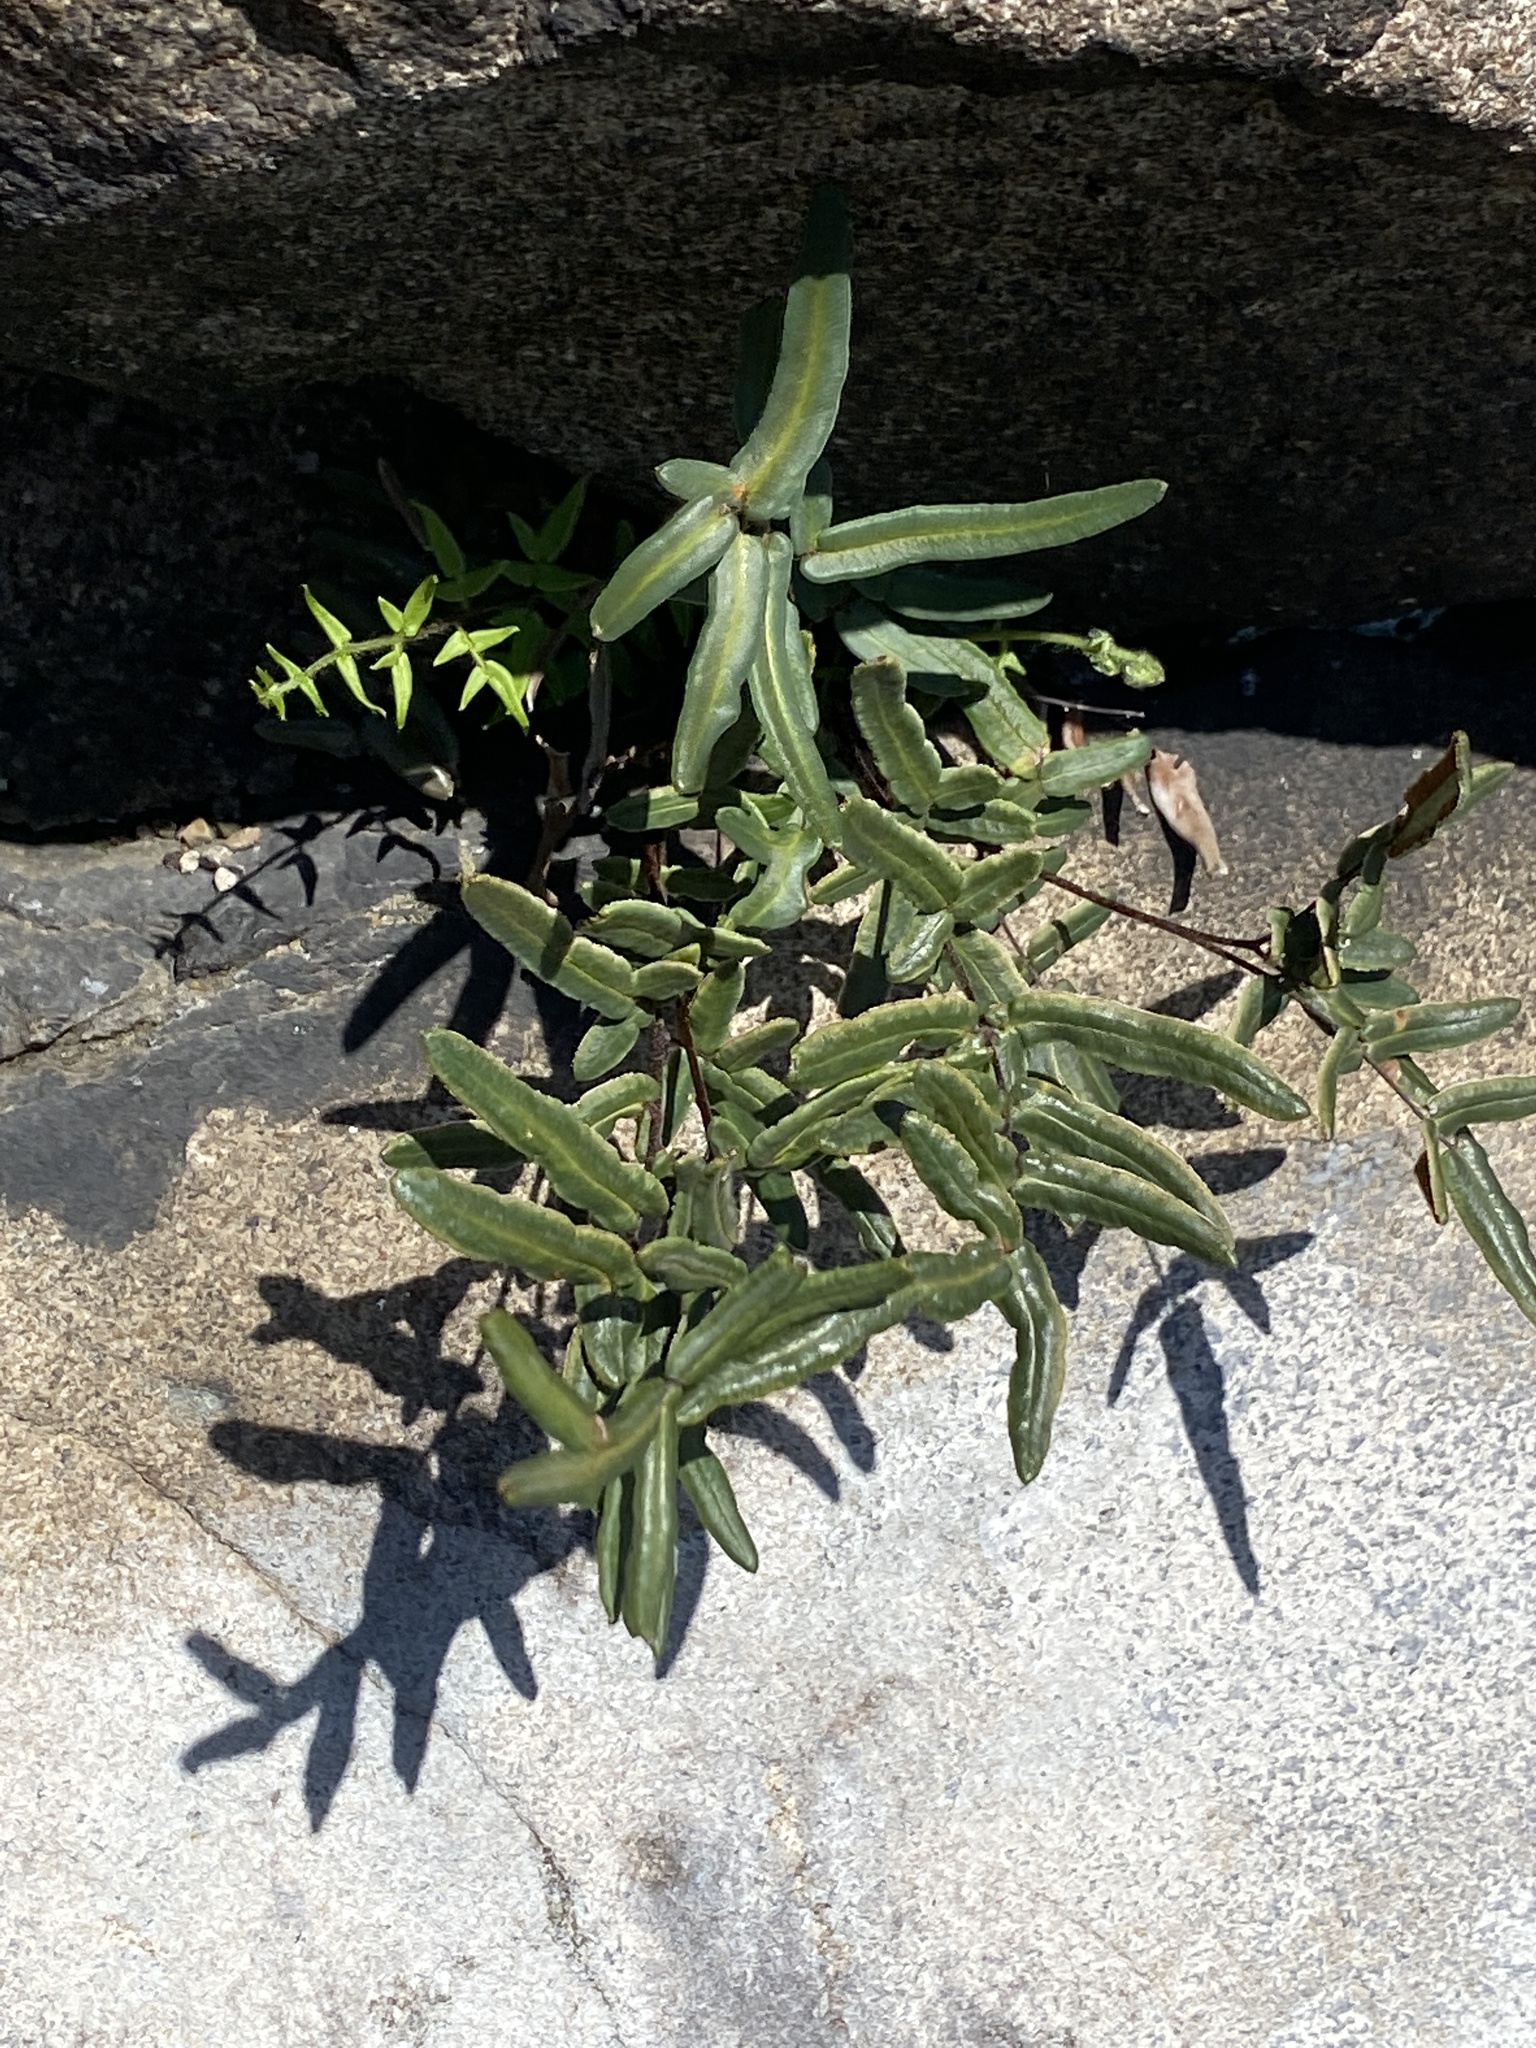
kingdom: Plantae
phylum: Tracheophyta
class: Polypodiopsida
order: Polypodiales
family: Pteridaceae
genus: Pellaea
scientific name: Pellaea atropurpurea
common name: Hairy cliffbrake
